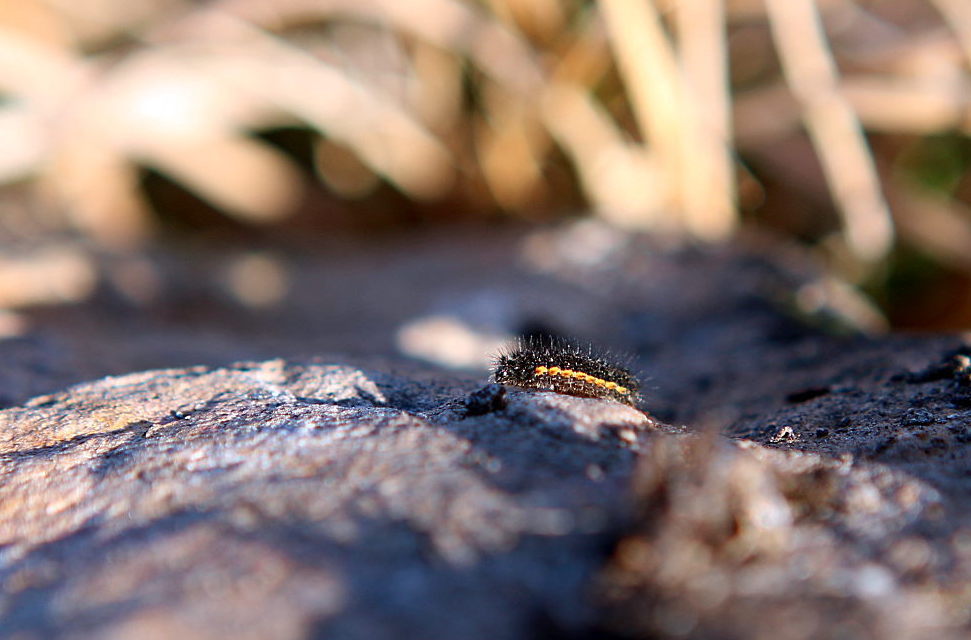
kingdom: Animalia
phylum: Arthropoda
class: Insecta
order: Lepidoptera
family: Erebidae
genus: Nyea
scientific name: Nyea lurideola
